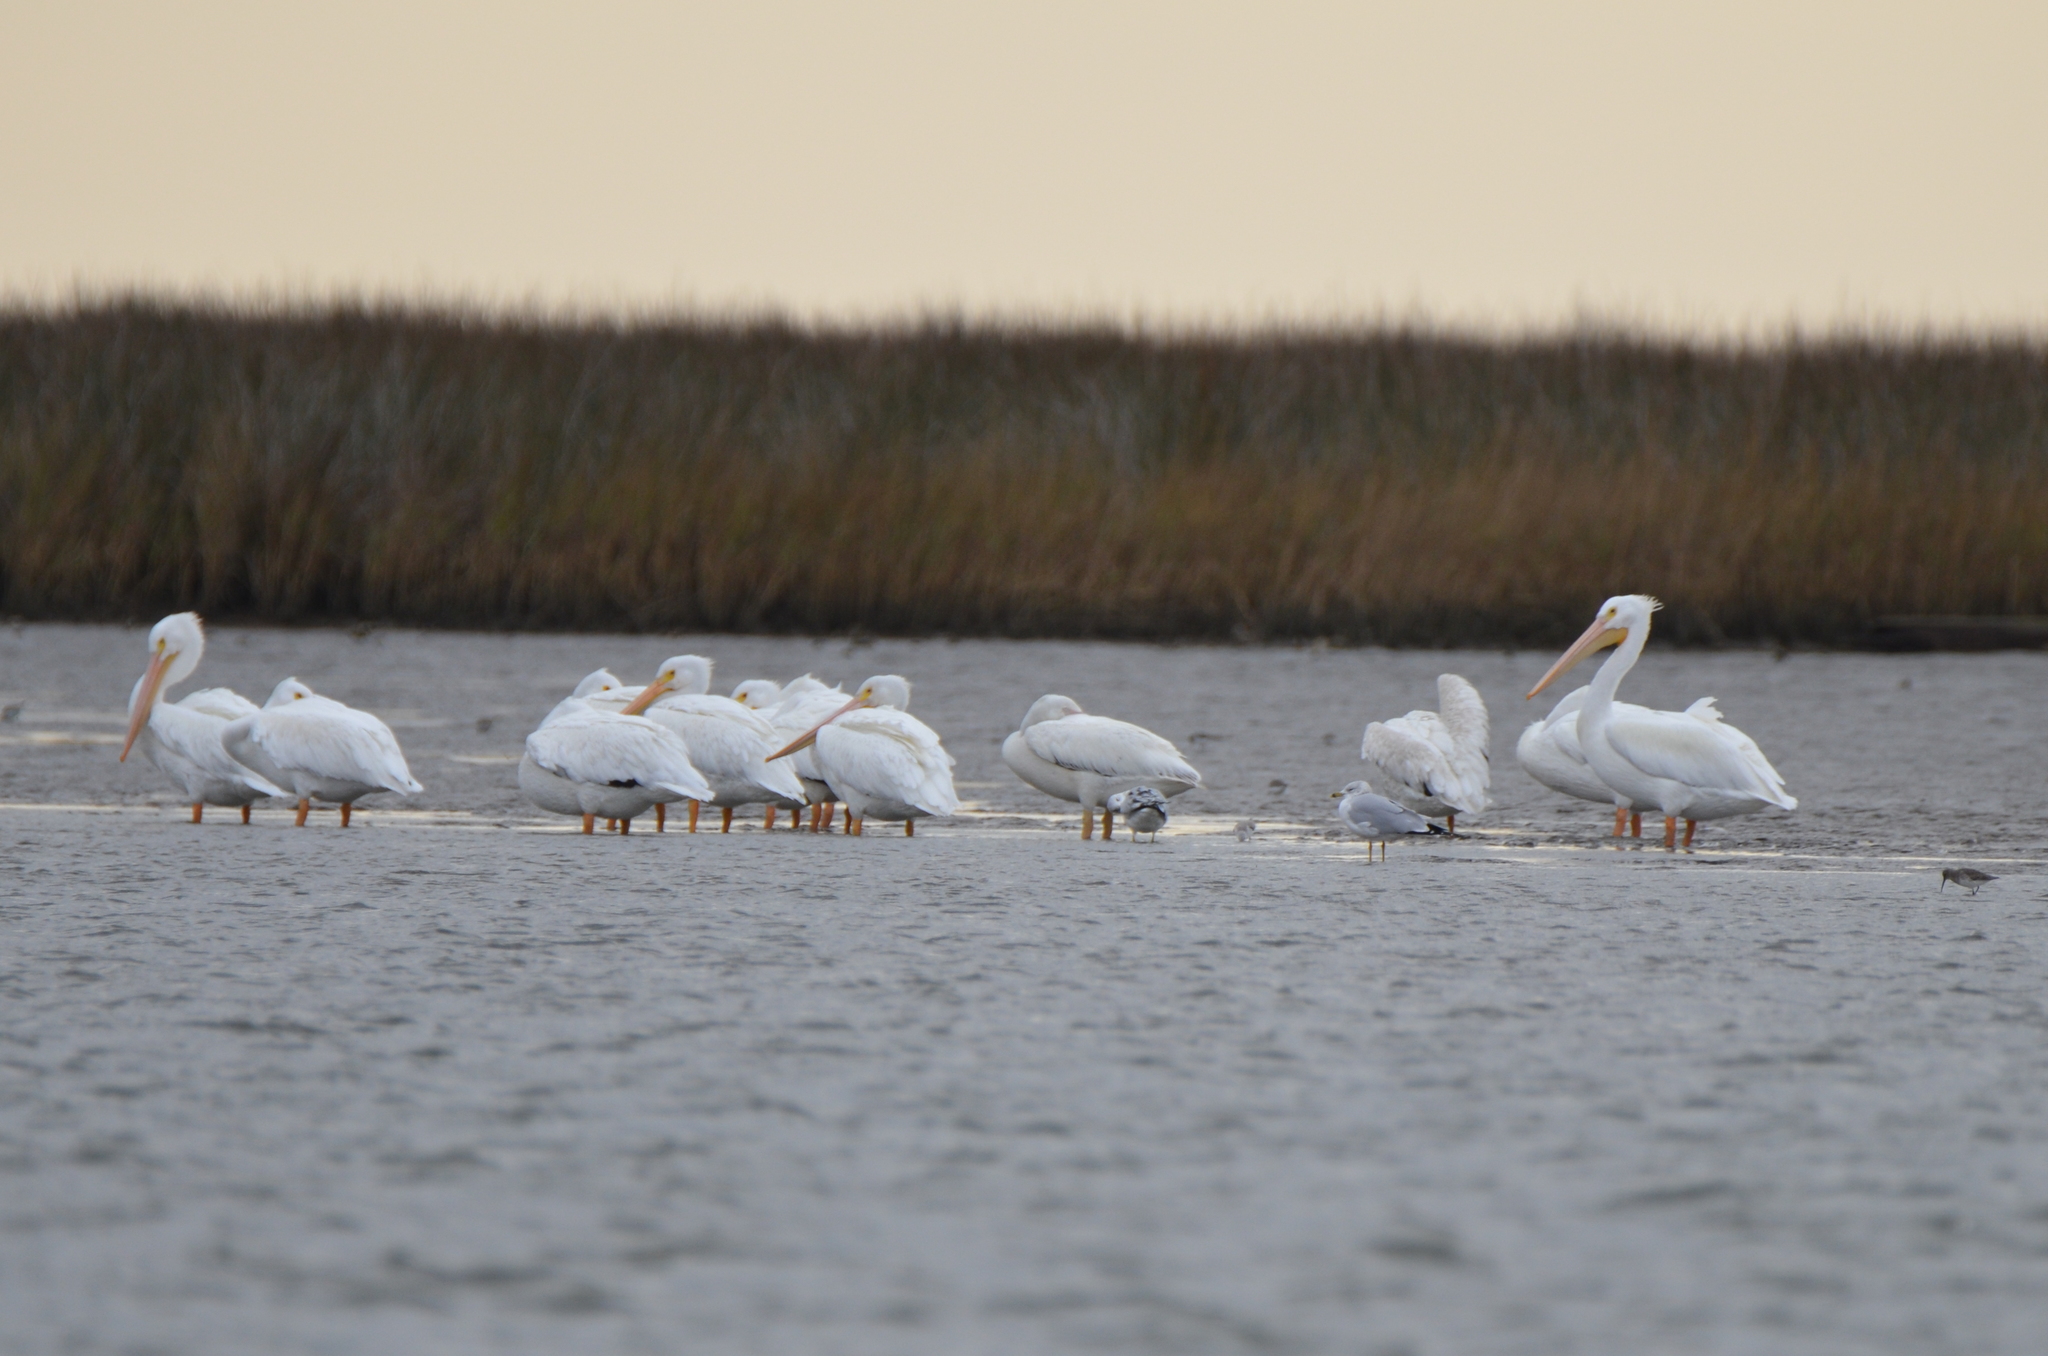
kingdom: Animalia
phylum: Chordata
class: Aves
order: Pelecaniformes
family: Pelecanidae
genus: Pelecanus
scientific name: Pelecanus erythrorhynchos
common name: American white pelican
